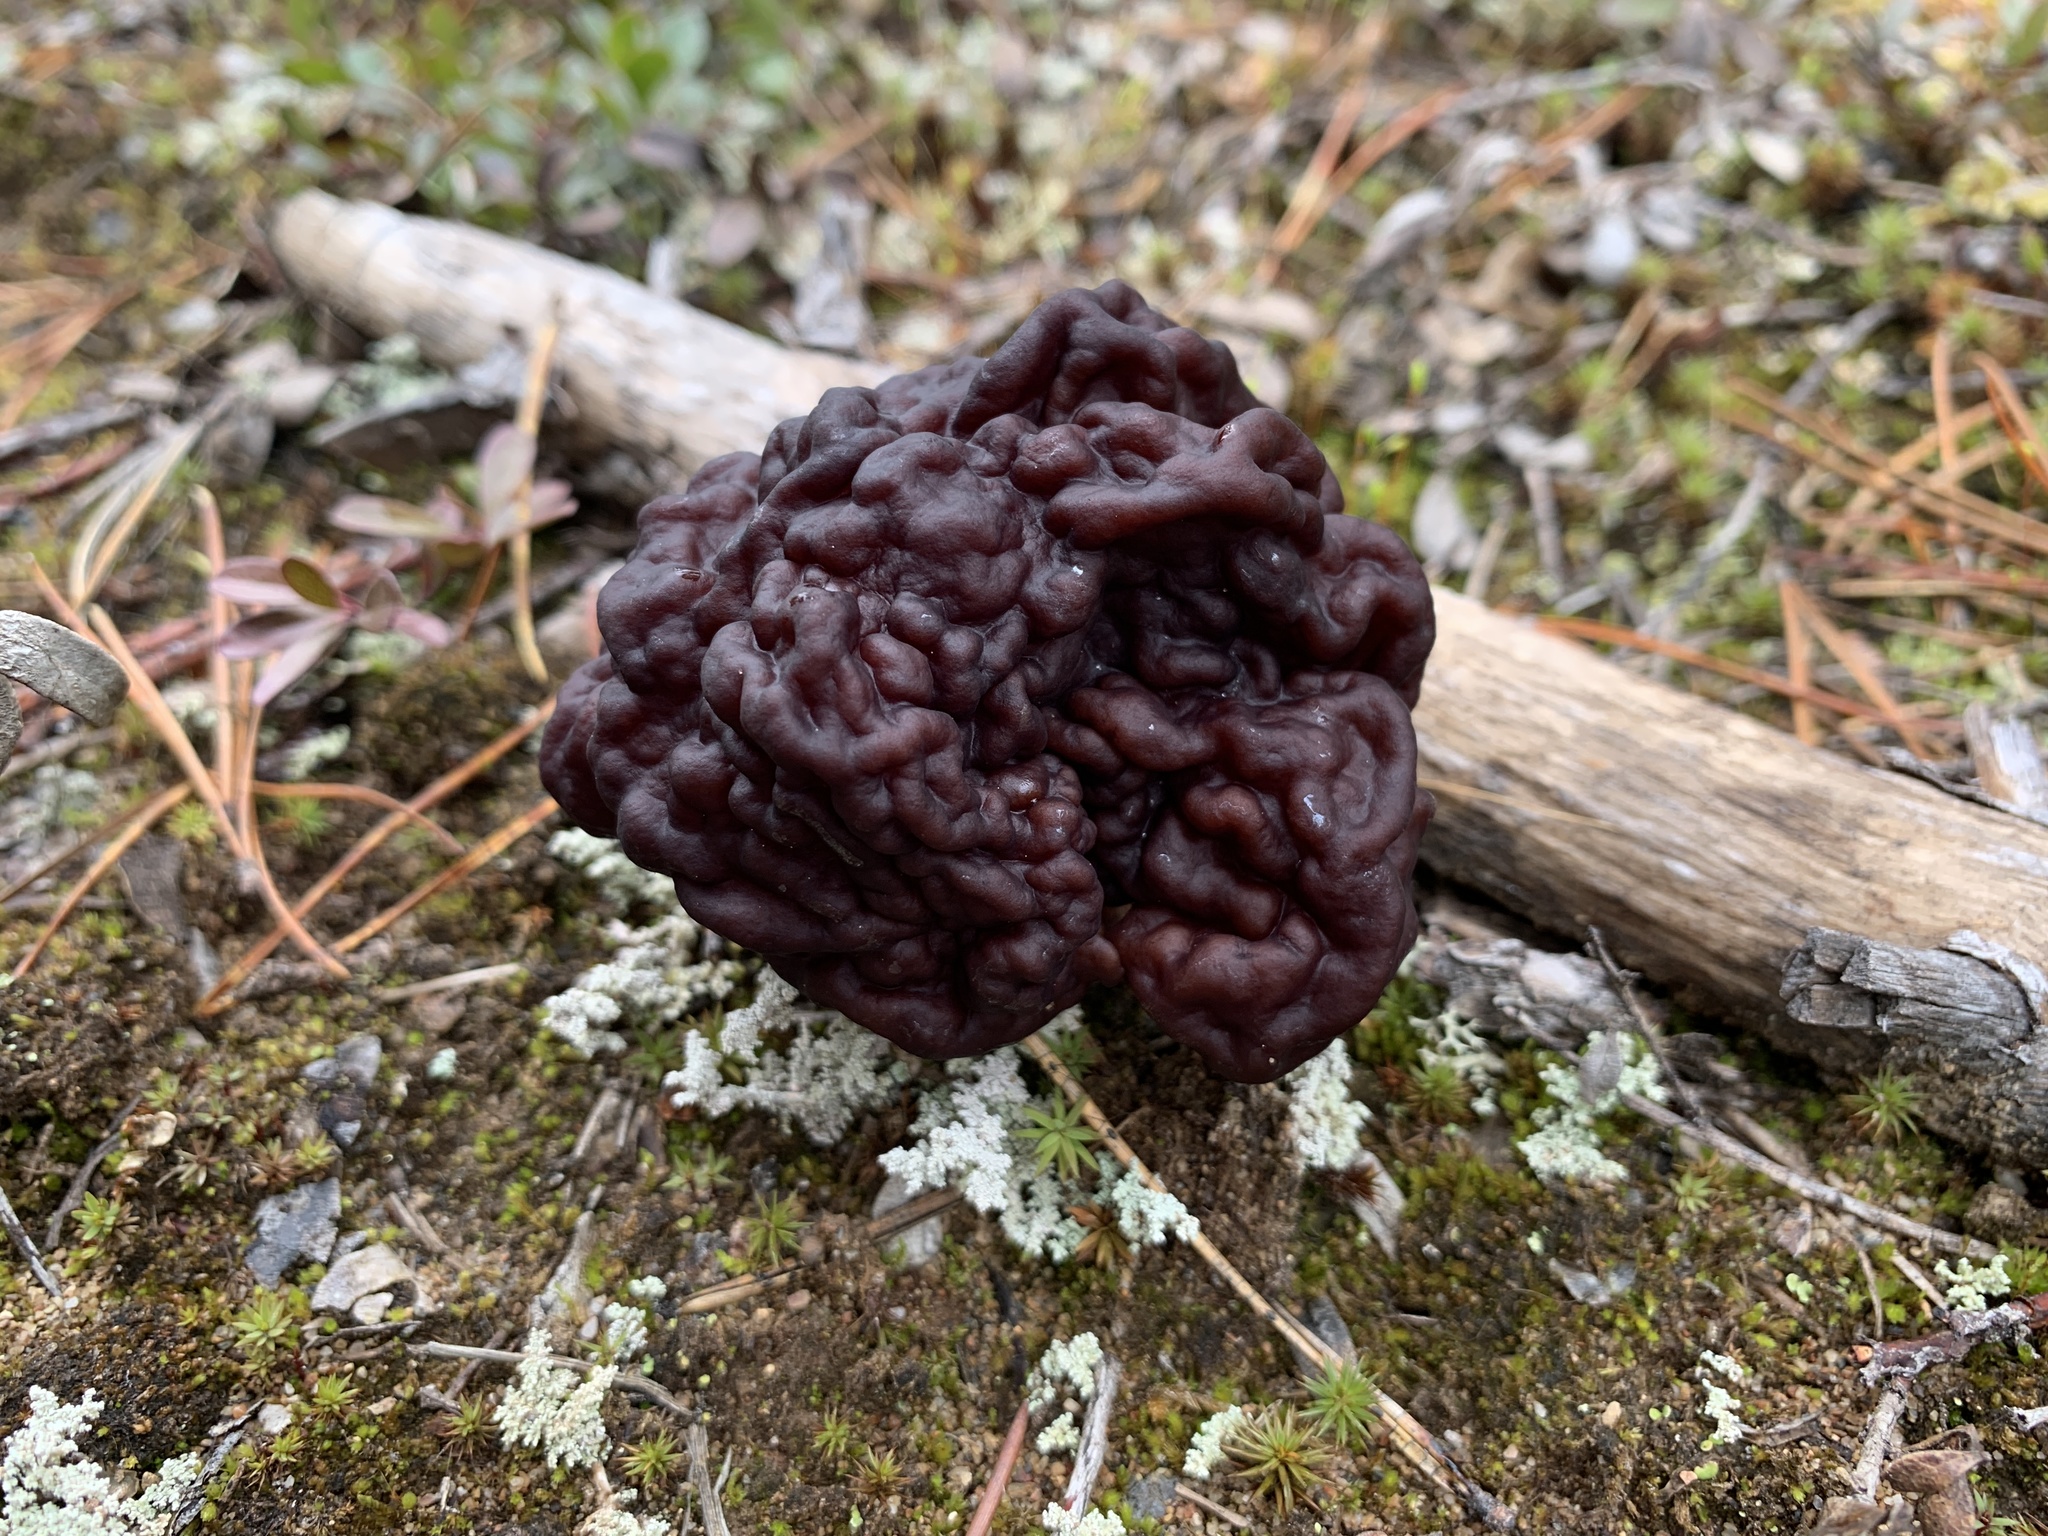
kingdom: Fungi
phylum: Ascomycota
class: Pezizomycetes
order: Pezizales
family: Discinaceae
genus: Gyromitra
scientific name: Gyromitra esculenta
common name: False morel
